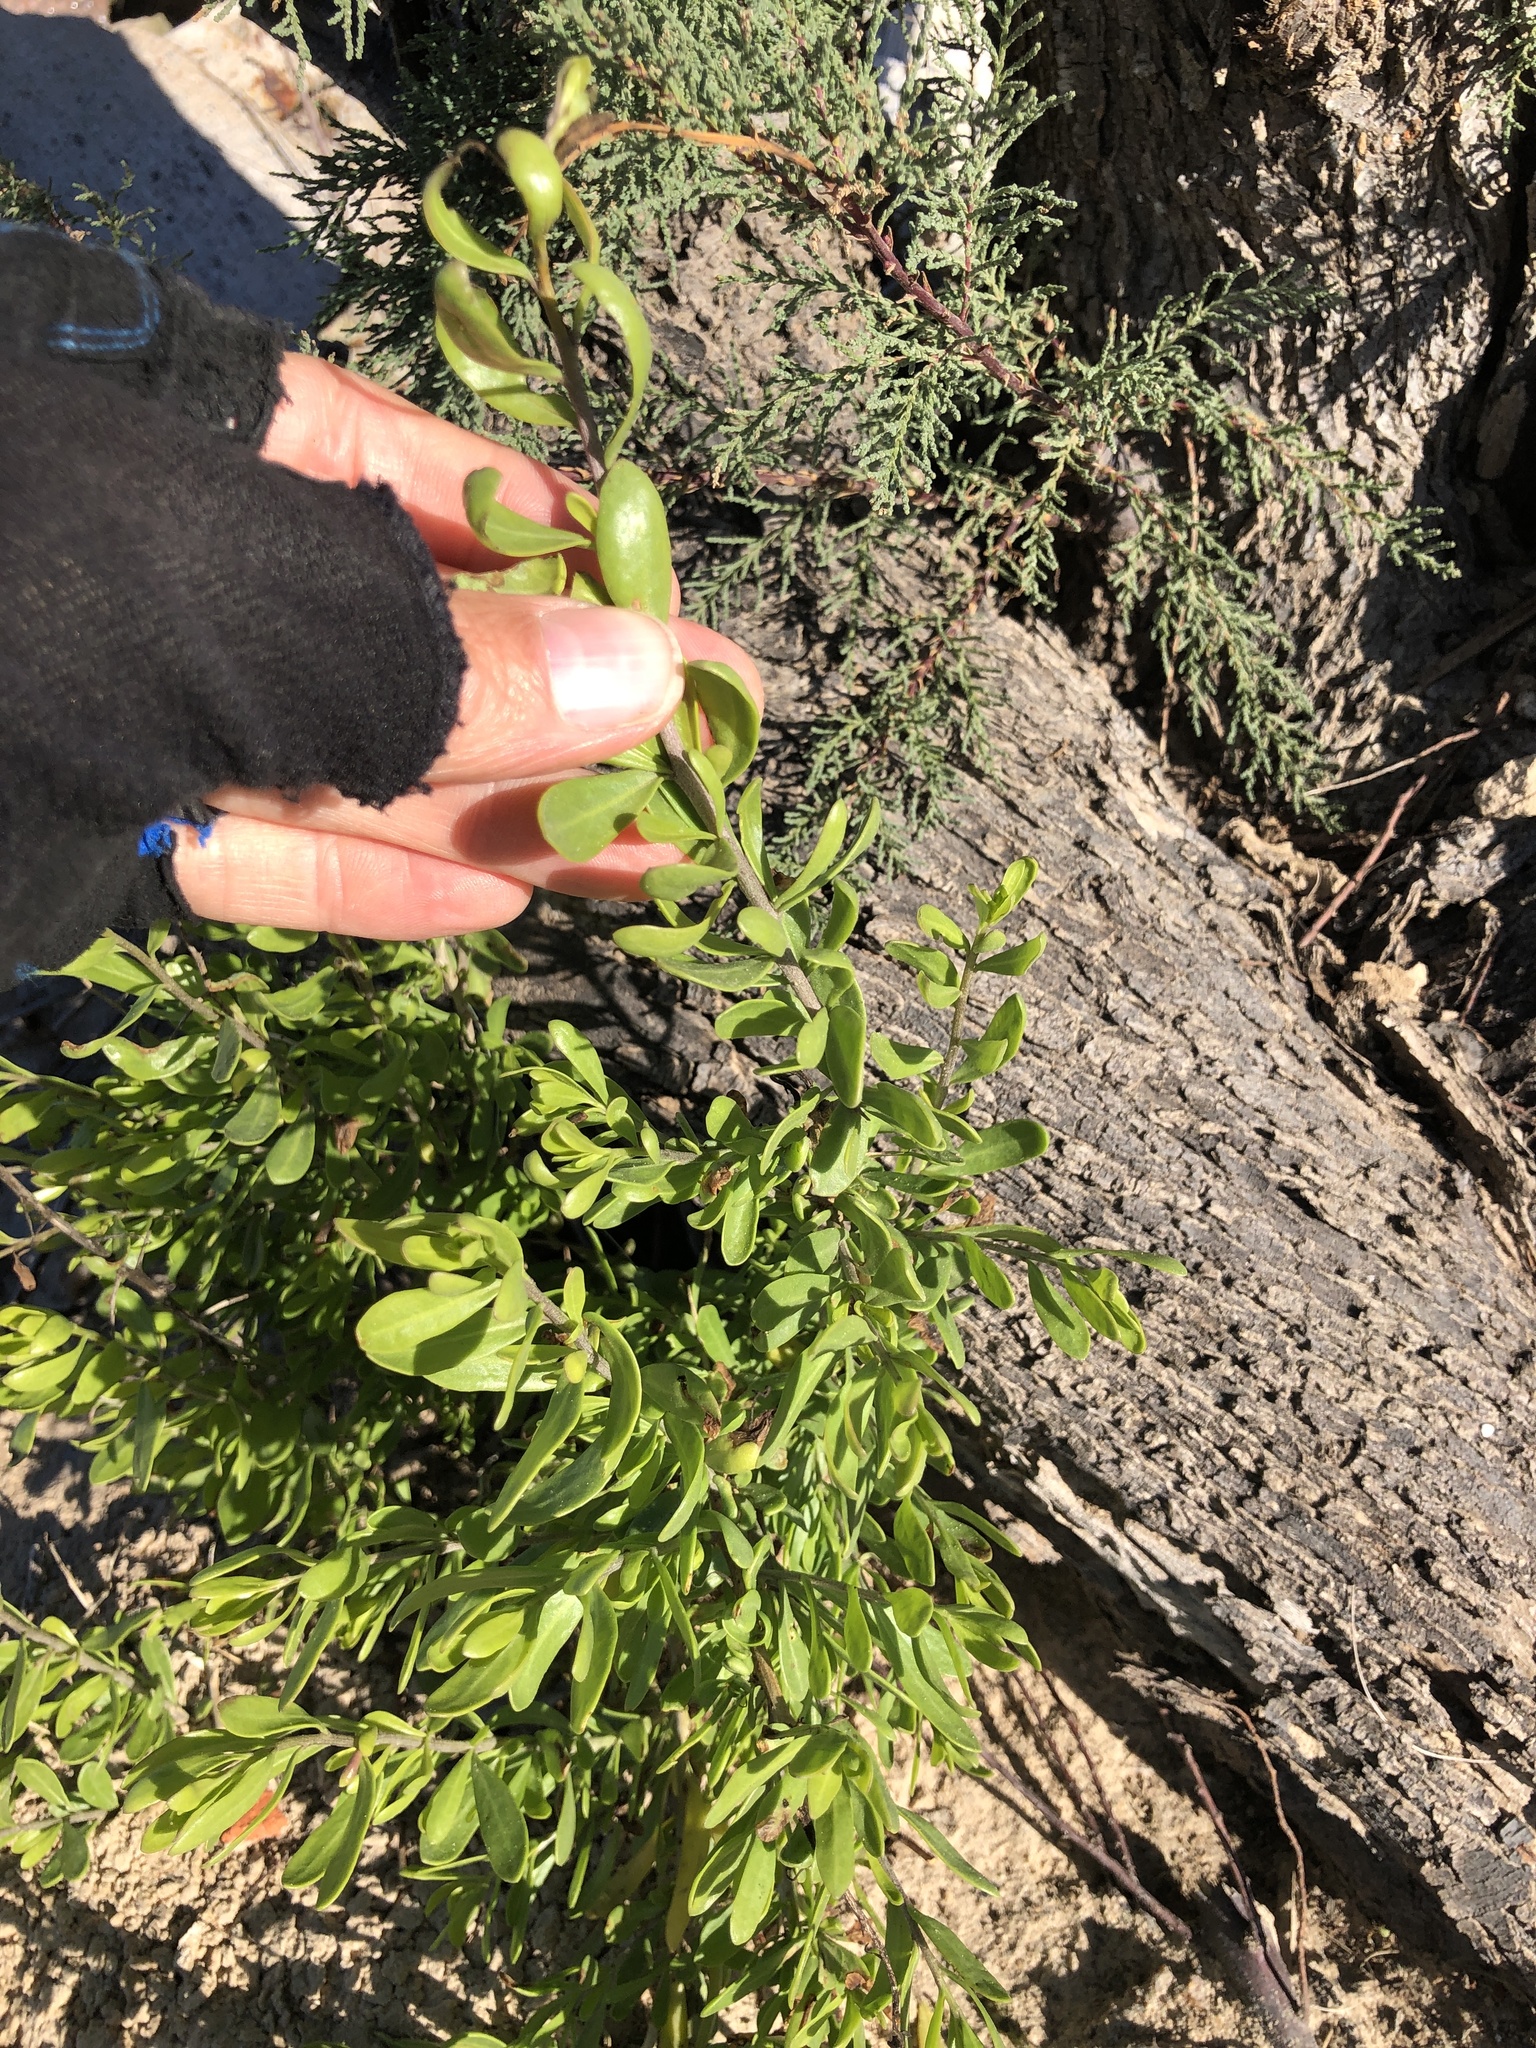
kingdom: Plantae
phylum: Tracheophyta
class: Magnoliopsida
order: Solanales
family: Solanaceae
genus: Lycium
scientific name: Lycium carolinianum
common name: Christmasberry
